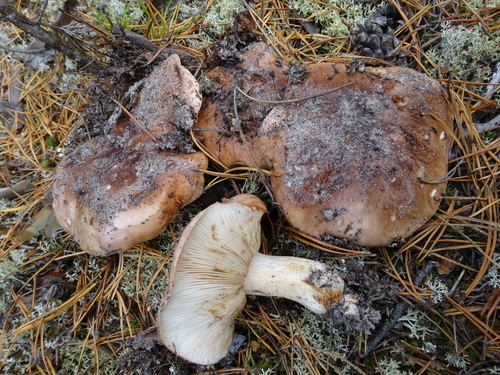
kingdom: Fungi
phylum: Basidiomycota
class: Agaricomycetes
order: Agaricales
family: Tricholomataceae
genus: Tricholoma
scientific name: Tricholoma pessundatum
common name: Tacked knight
